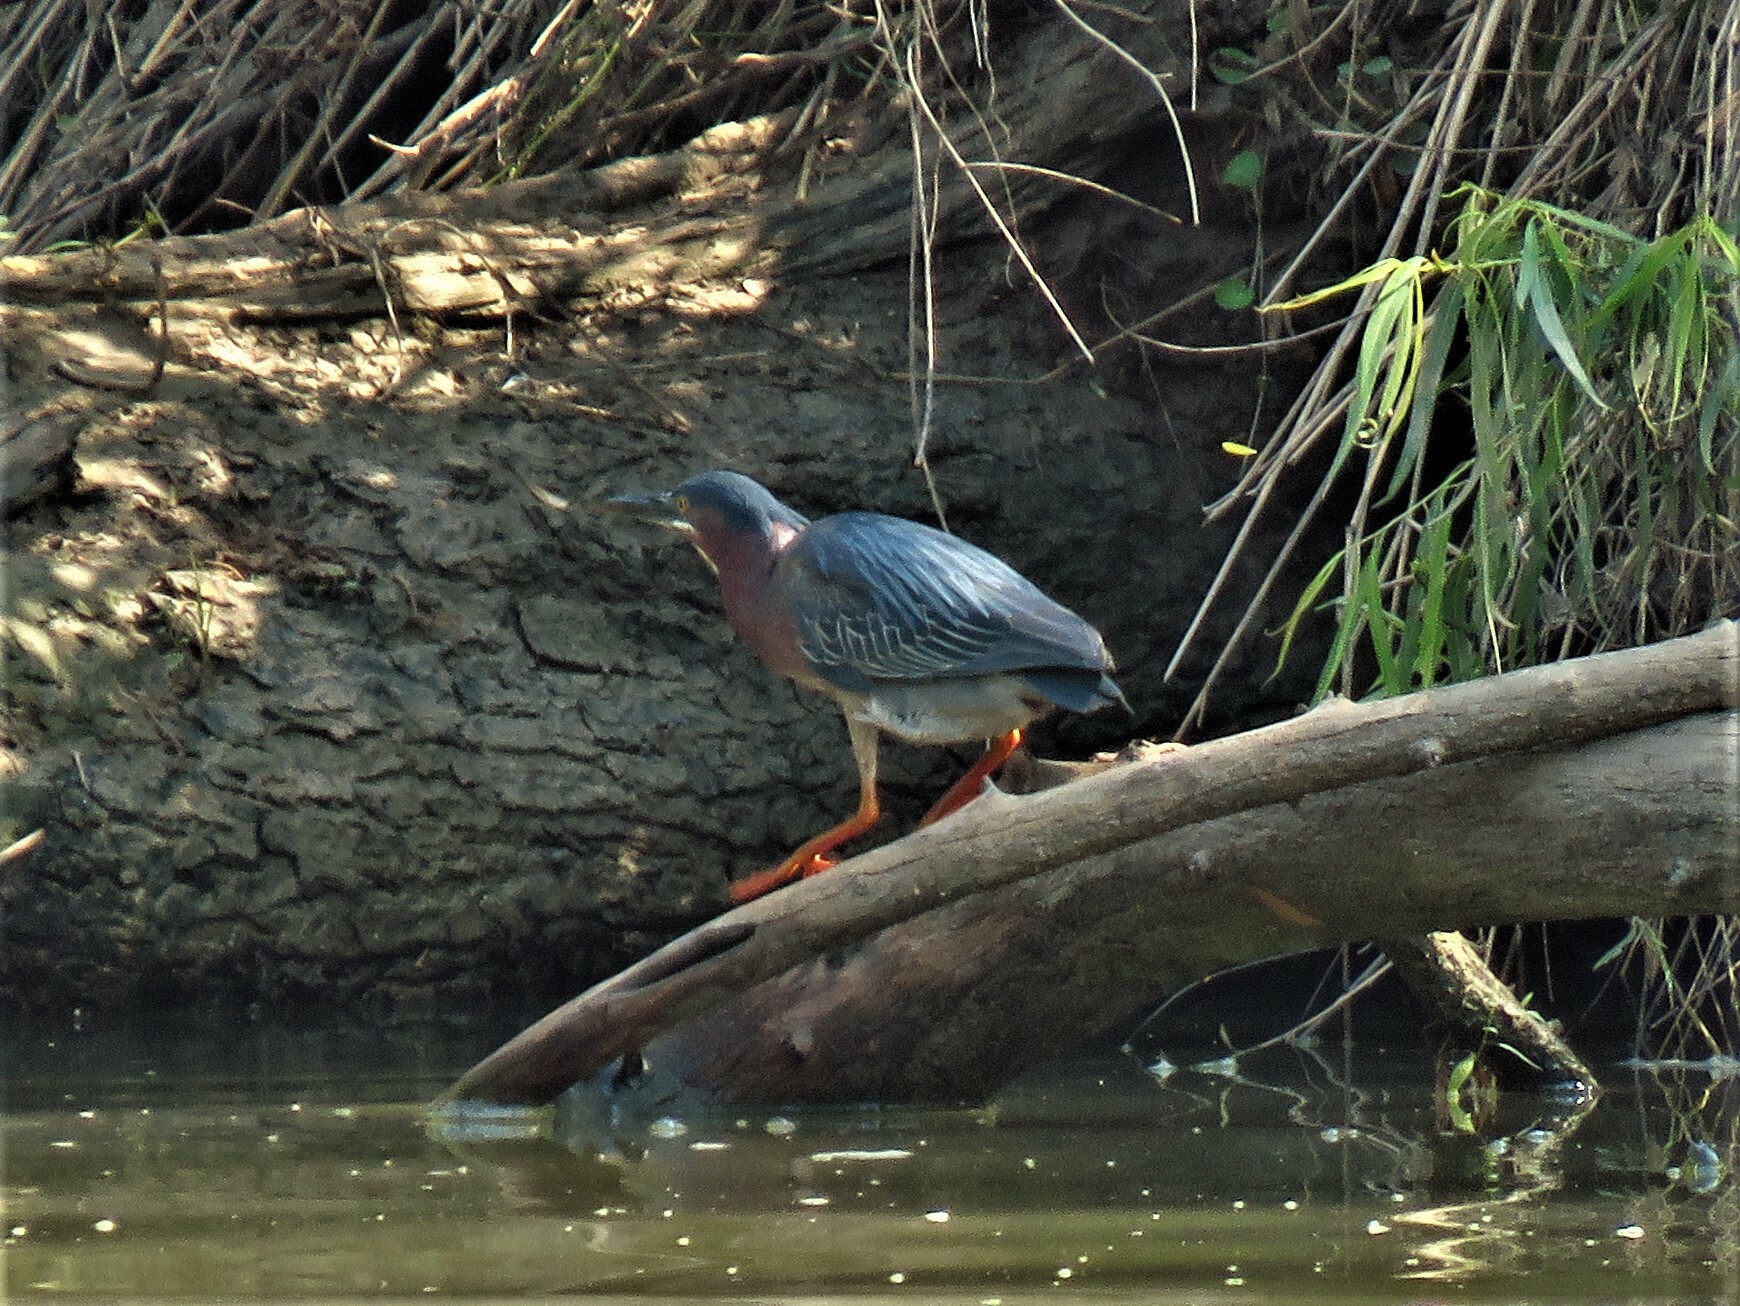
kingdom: Animalia
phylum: Chordata
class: Aves
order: Pelecaniformes
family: Ardeidae
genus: Butorides
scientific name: Butorides virescens
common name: Green heron
